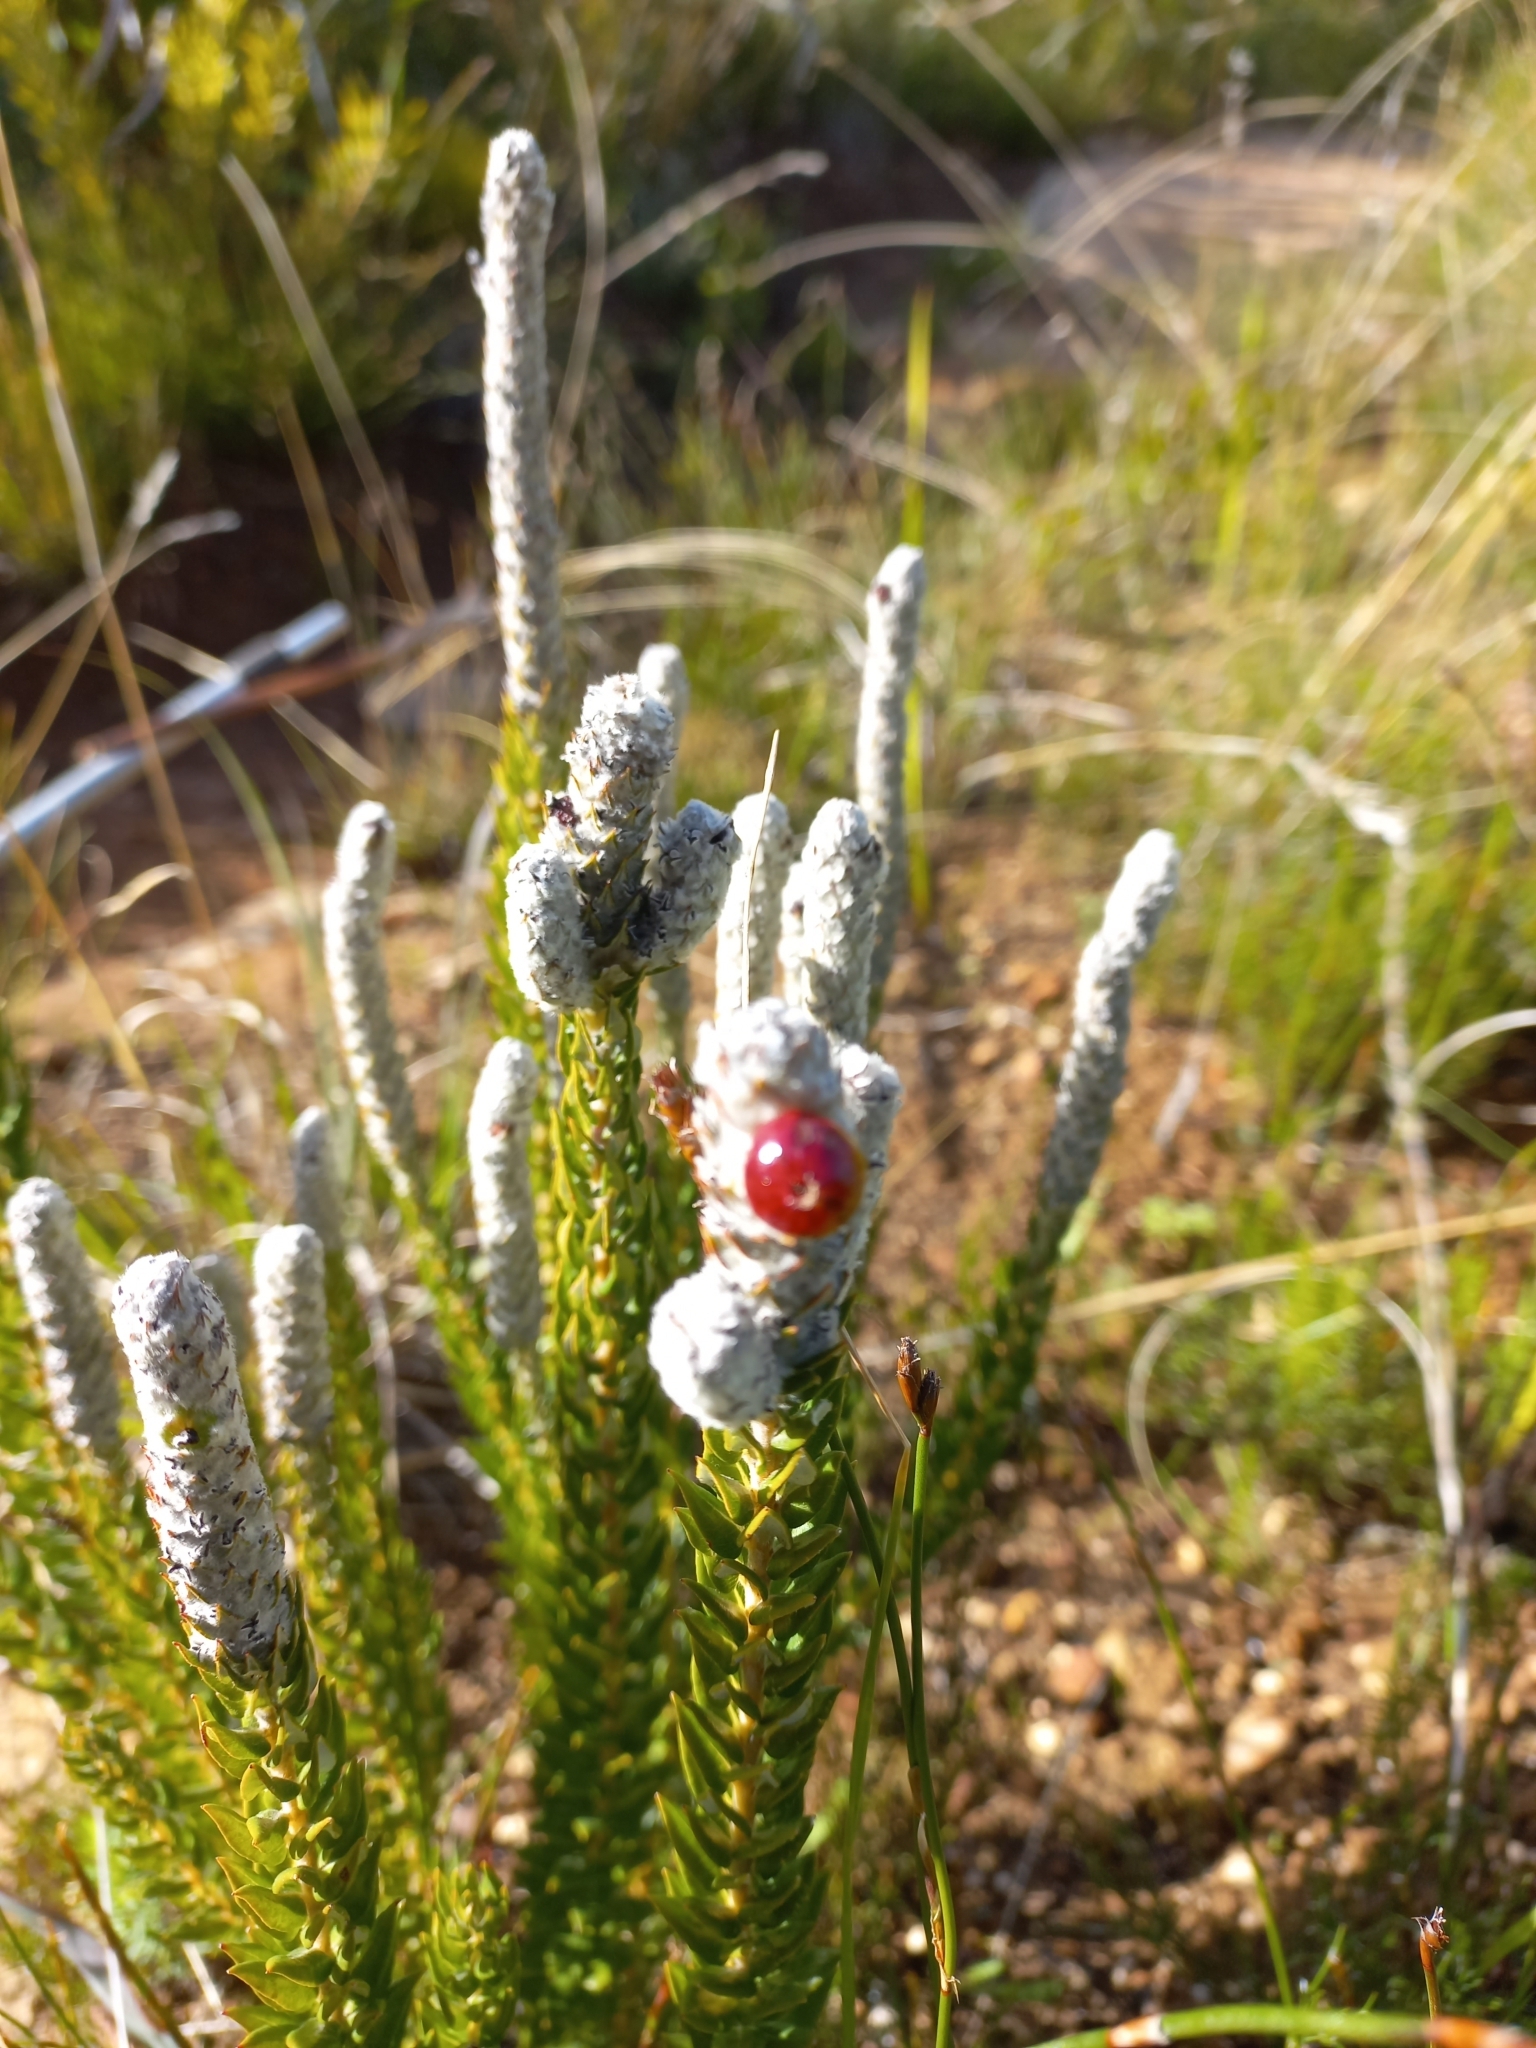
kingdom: Plantae
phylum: Tracheophyta
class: Magnoliopsida
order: Rosales
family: Rhamnaceae
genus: Phylica
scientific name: Phylica spicata
